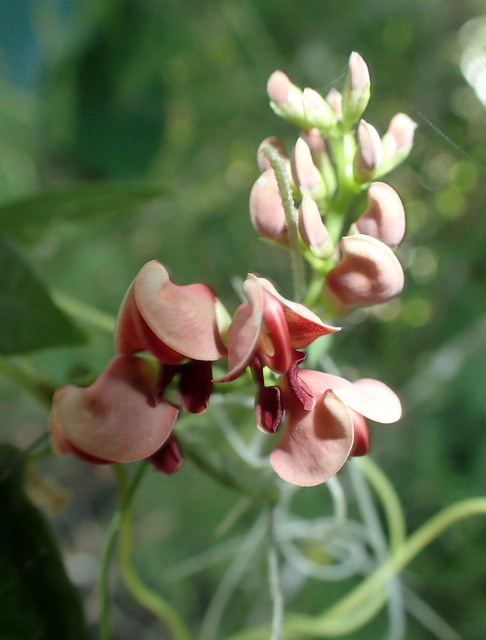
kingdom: Plantae
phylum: Tracheophyta
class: Magnoliopsida
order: Fabales
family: Fabaceae
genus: Apios
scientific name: Apios americana
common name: American potato-bean
